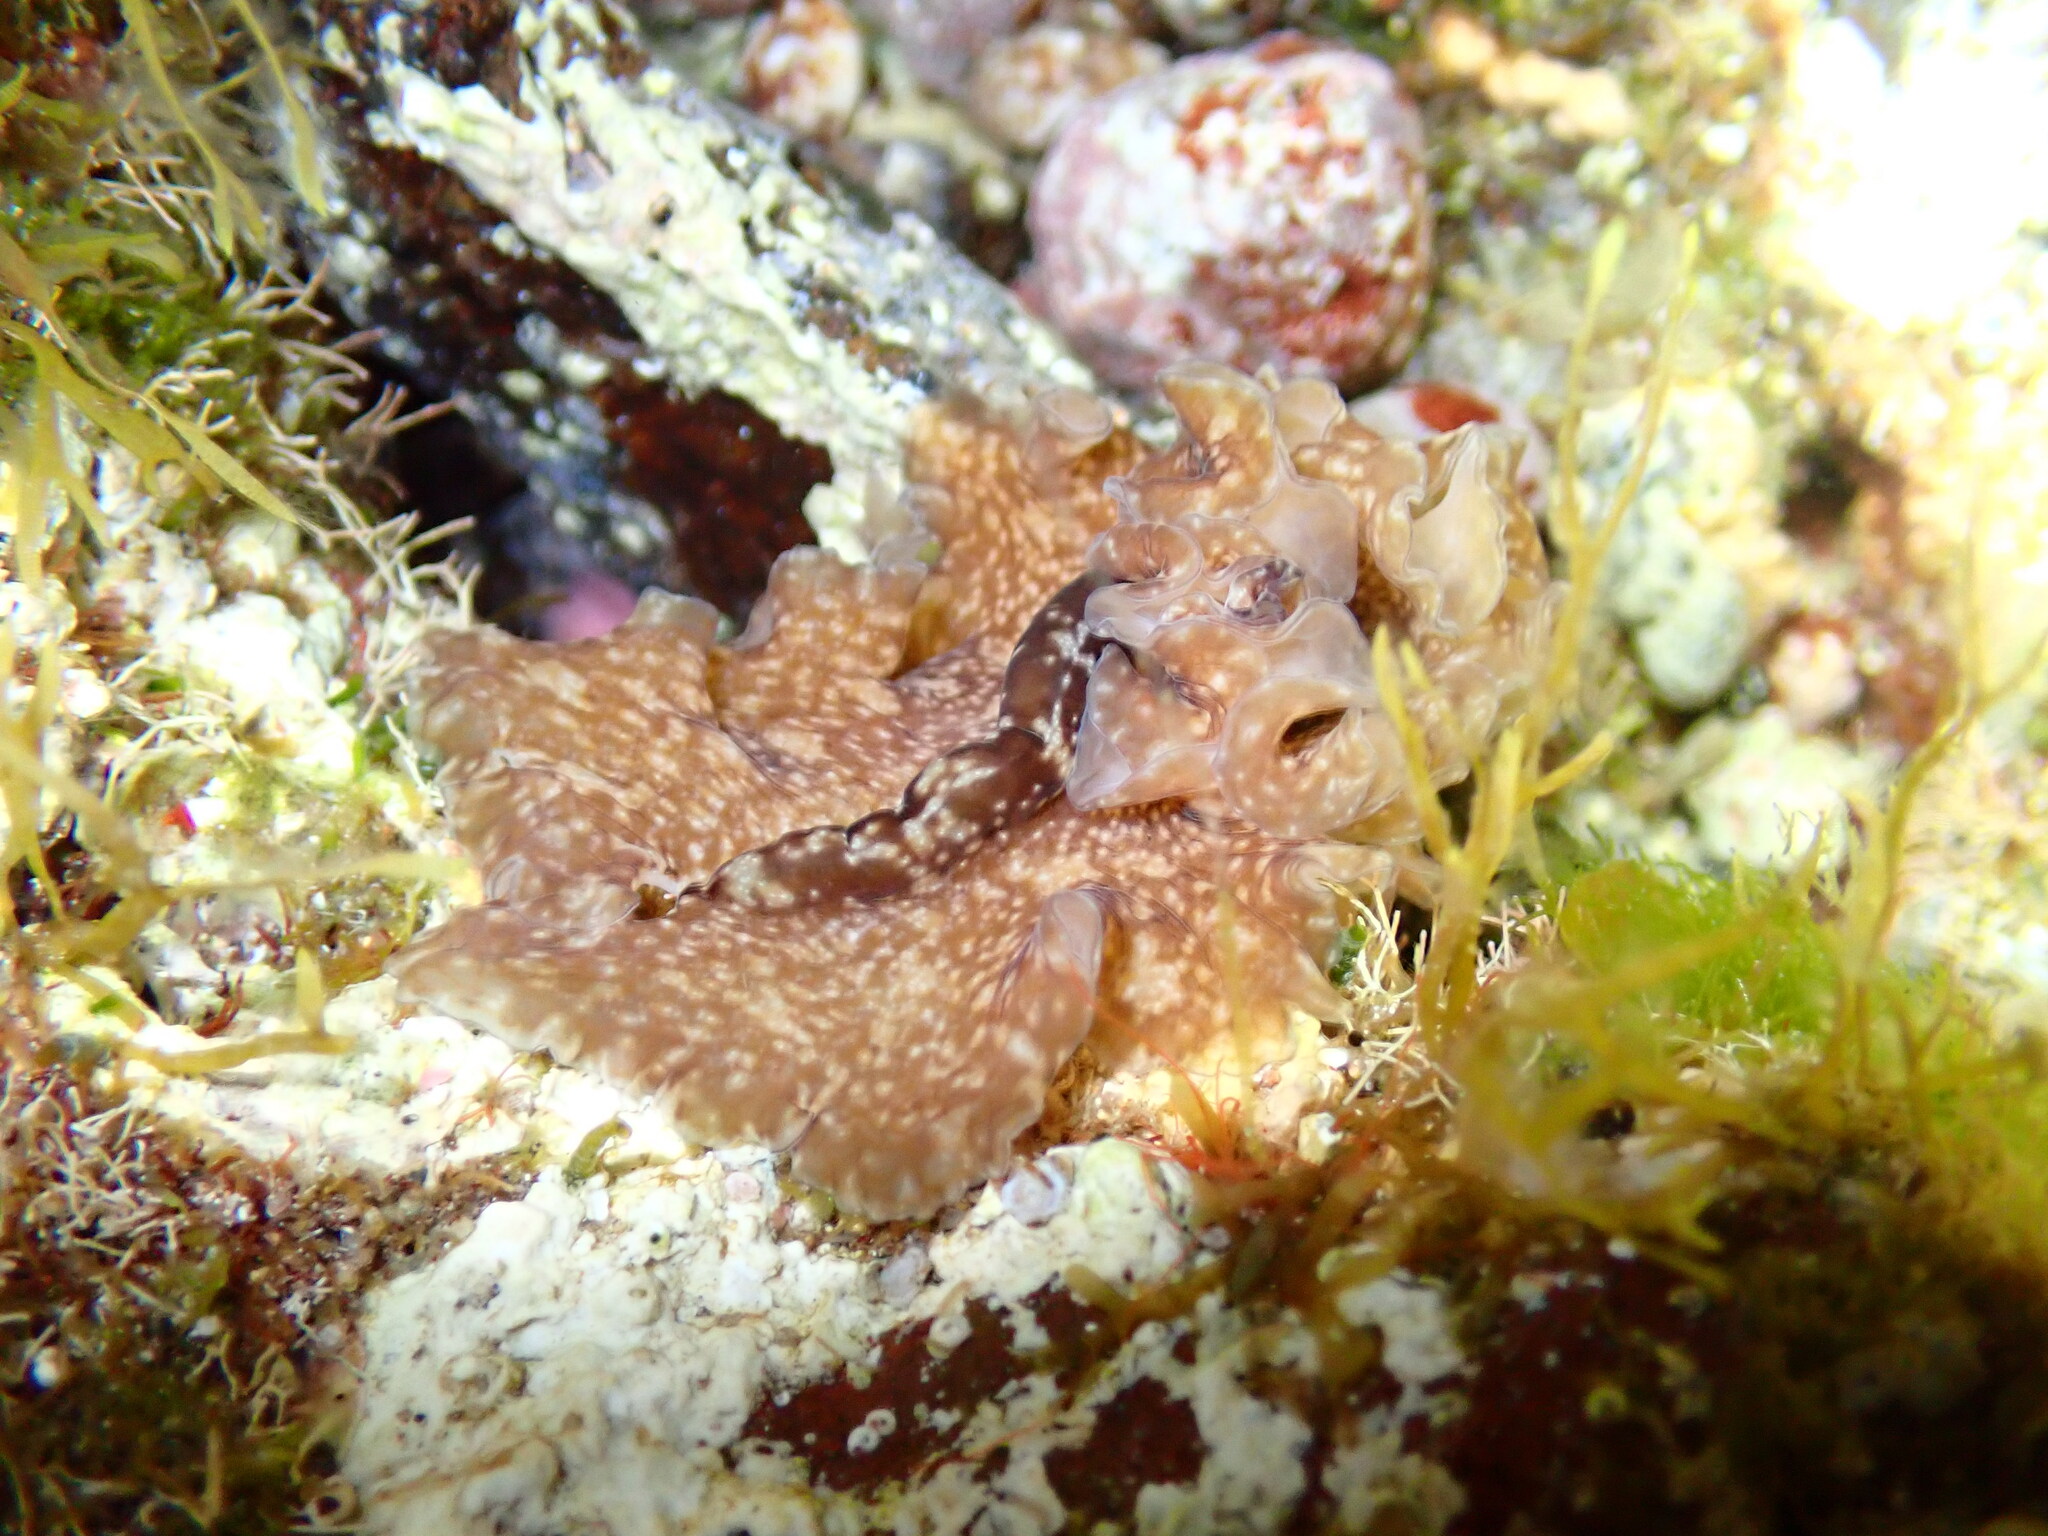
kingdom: Animalia
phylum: Platyhelminthes
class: Turbellaria
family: Pseudocerotidae
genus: Monobiceros
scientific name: Monobiceros langi
